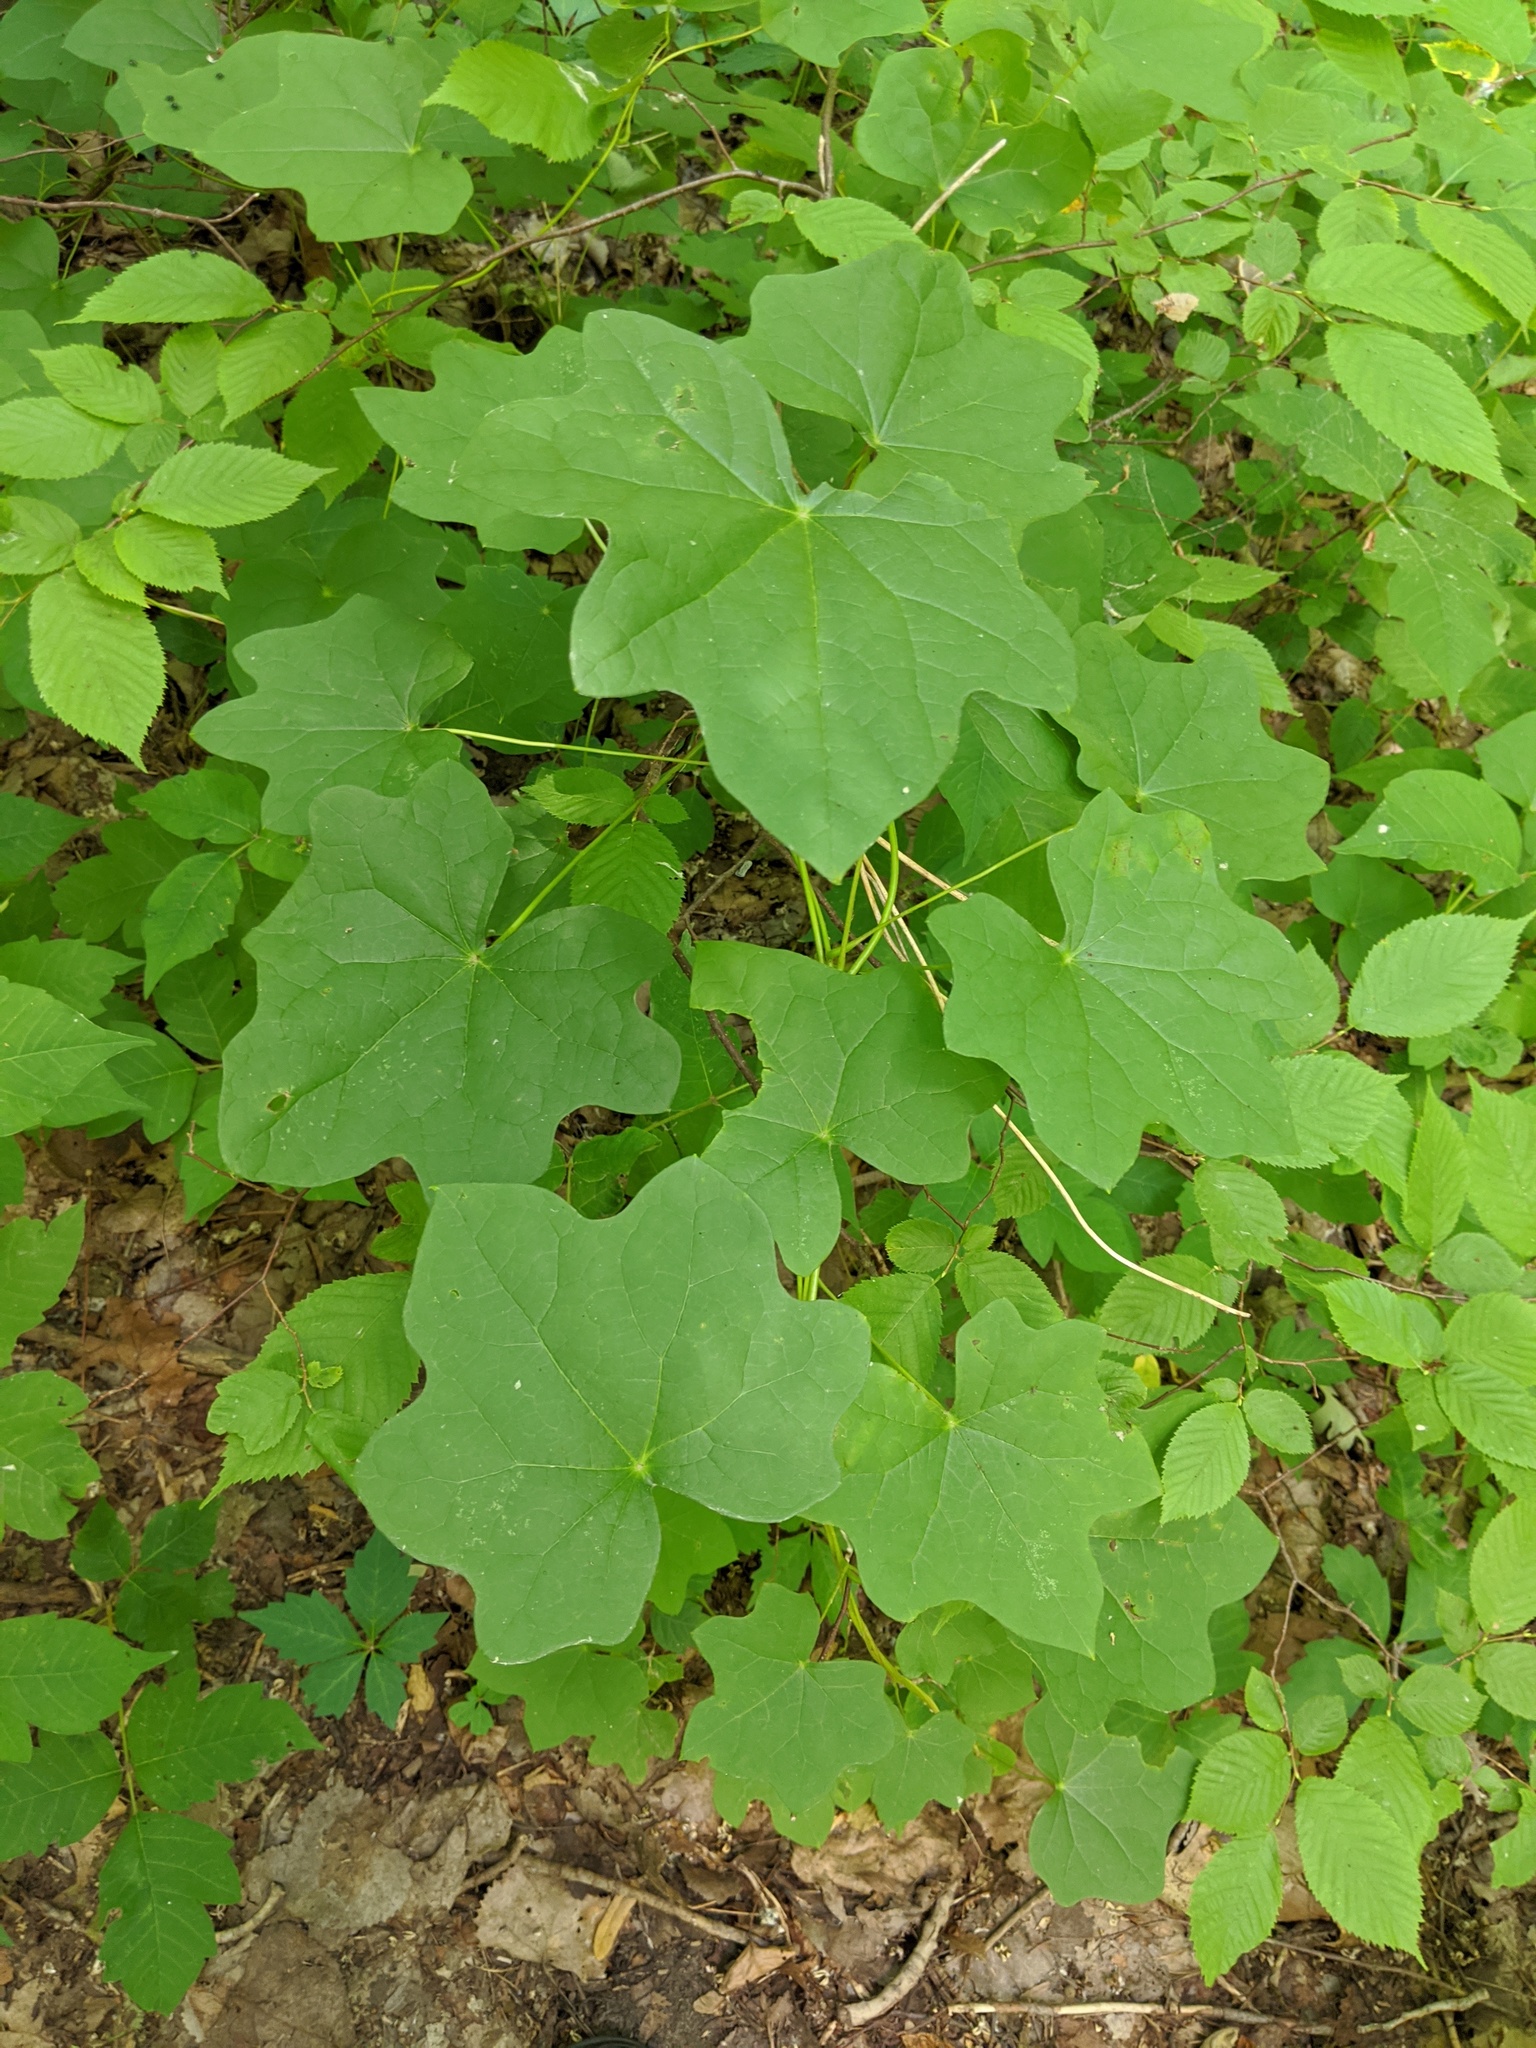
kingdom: Plantae
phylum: Tracheophyta
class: Magnoliopsida
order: Ranunculales
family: Menispermaceae
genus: Menispermum
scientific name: Menispermum canadense
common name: Moonseed
